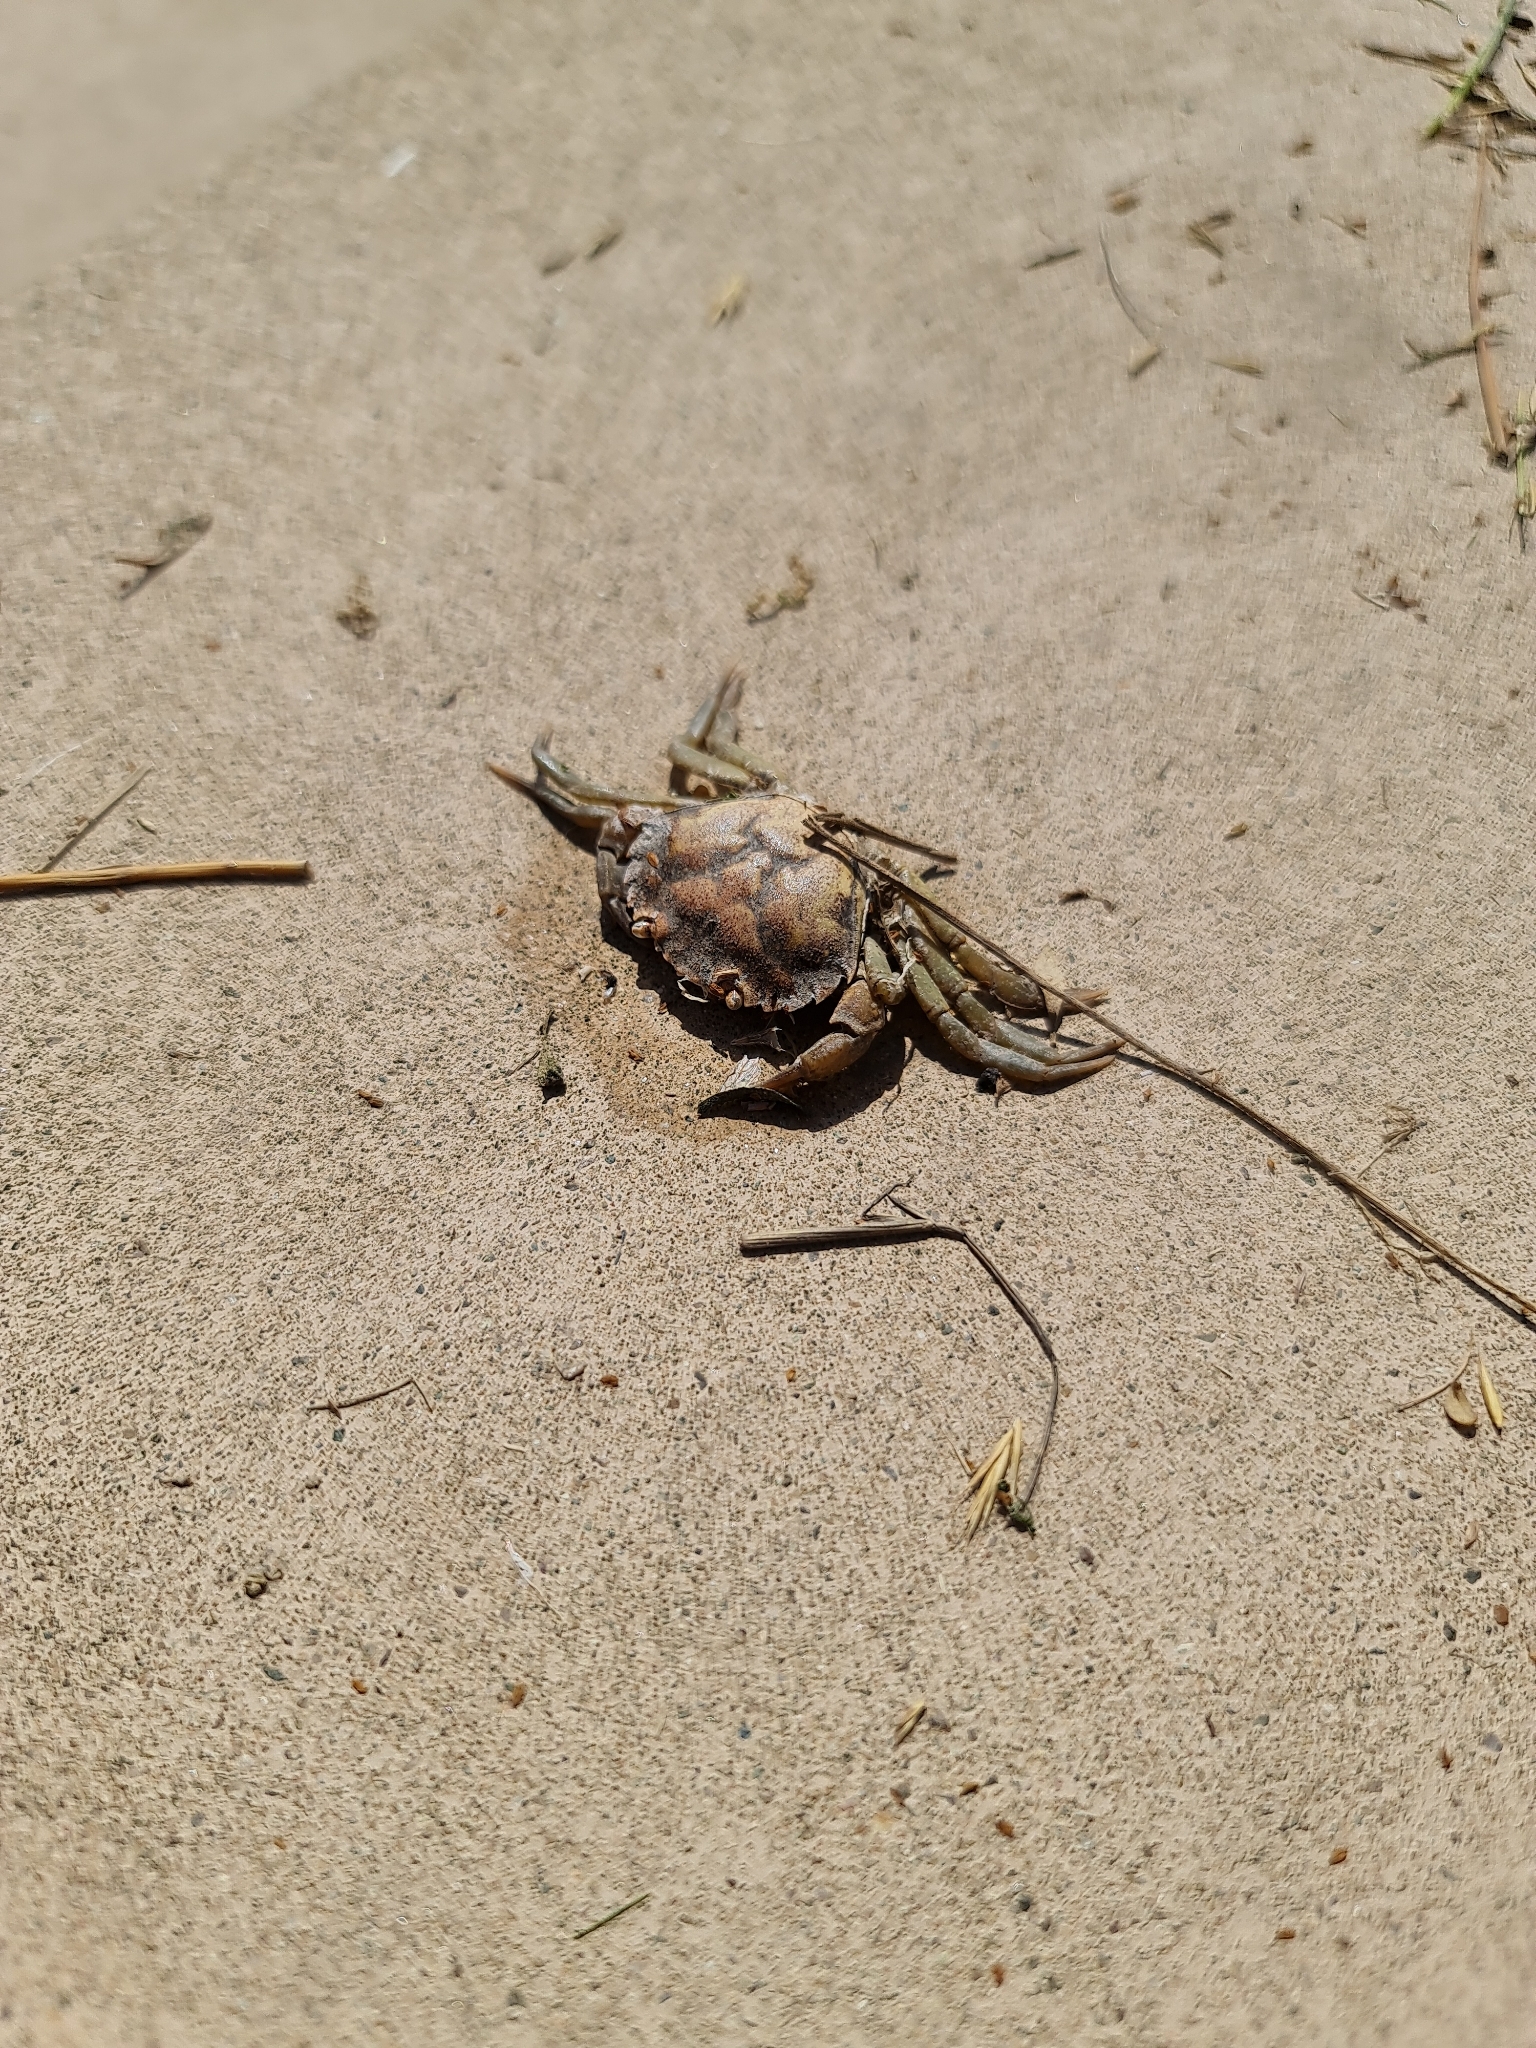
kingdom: Animalia
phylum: Arthropoda
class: Malacostraca
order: Decapoda
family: Carcinidae
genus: Carcinus
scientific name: Carcinus maenas
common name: European green crab
